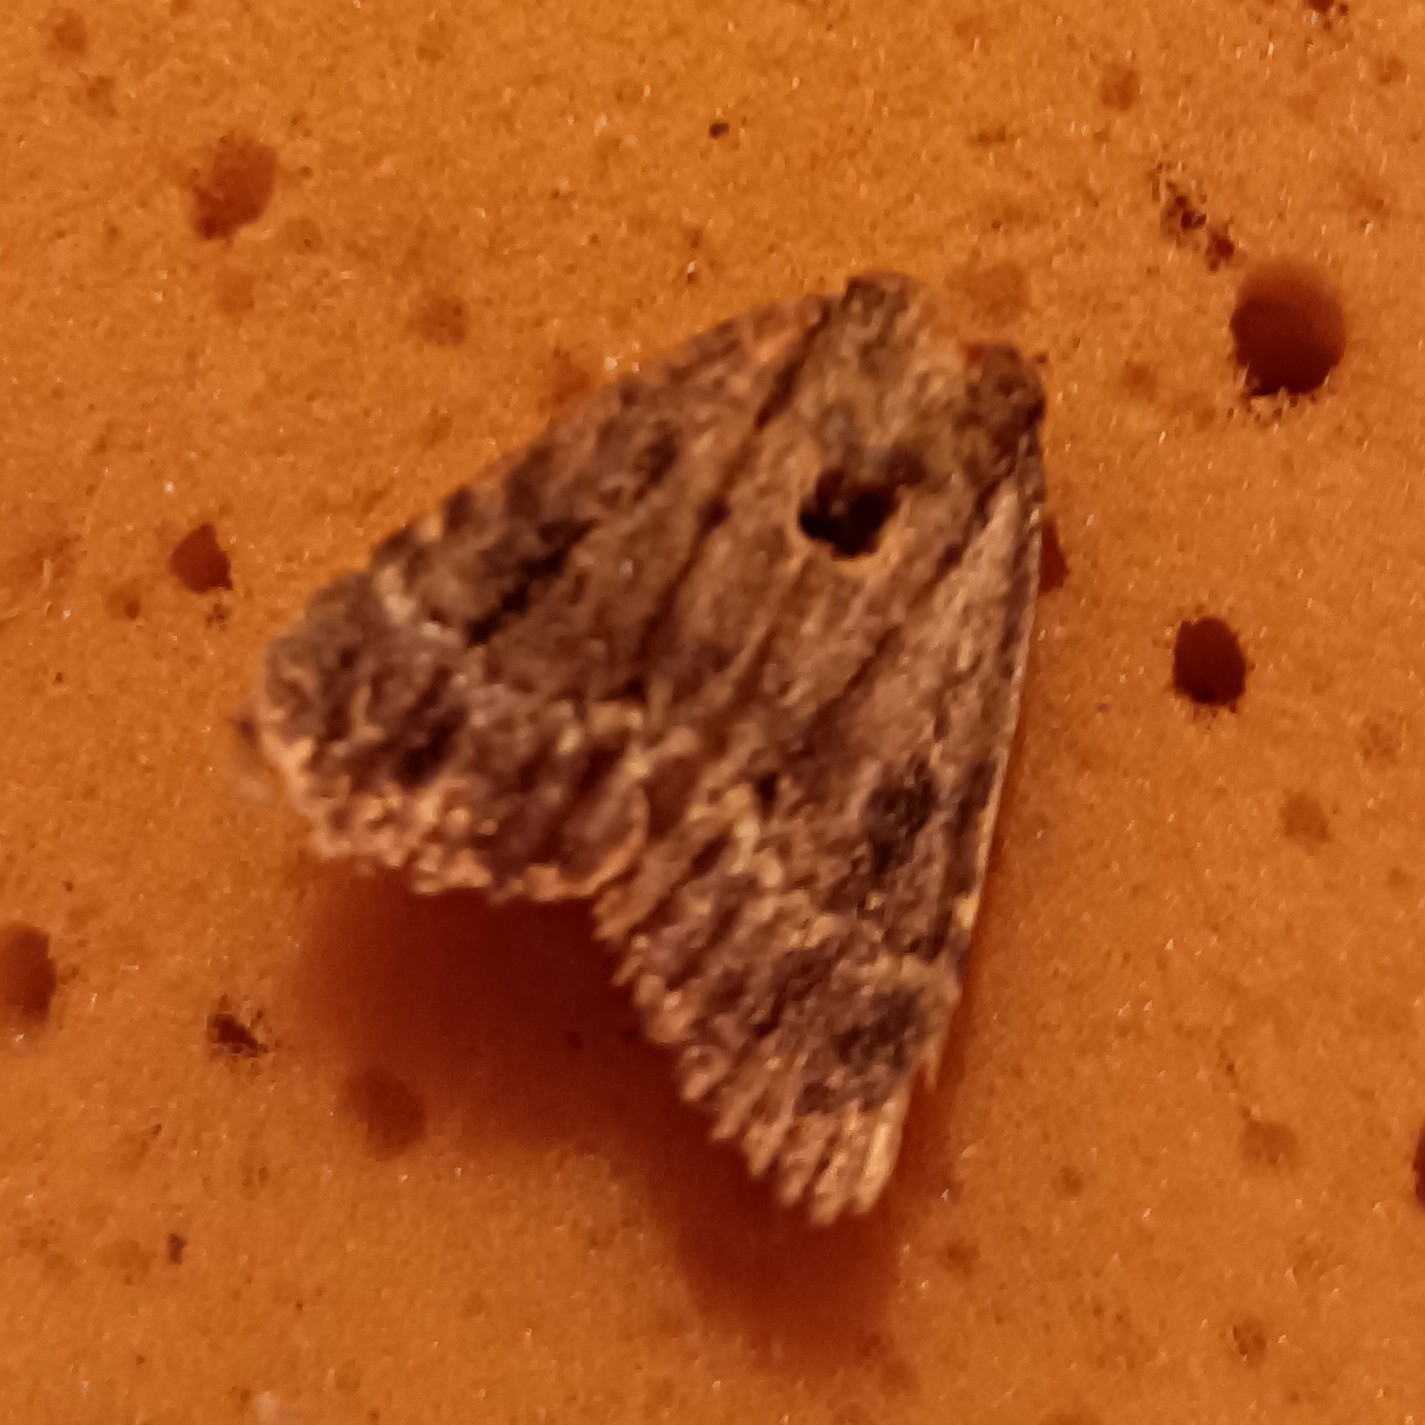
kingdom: Animalia
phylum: Arthropoda
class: Insecta
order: Lepidoptera
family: Noctuidae
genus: Amphipyra
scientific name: Amphipyra pyramidea
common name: Copper underwing
